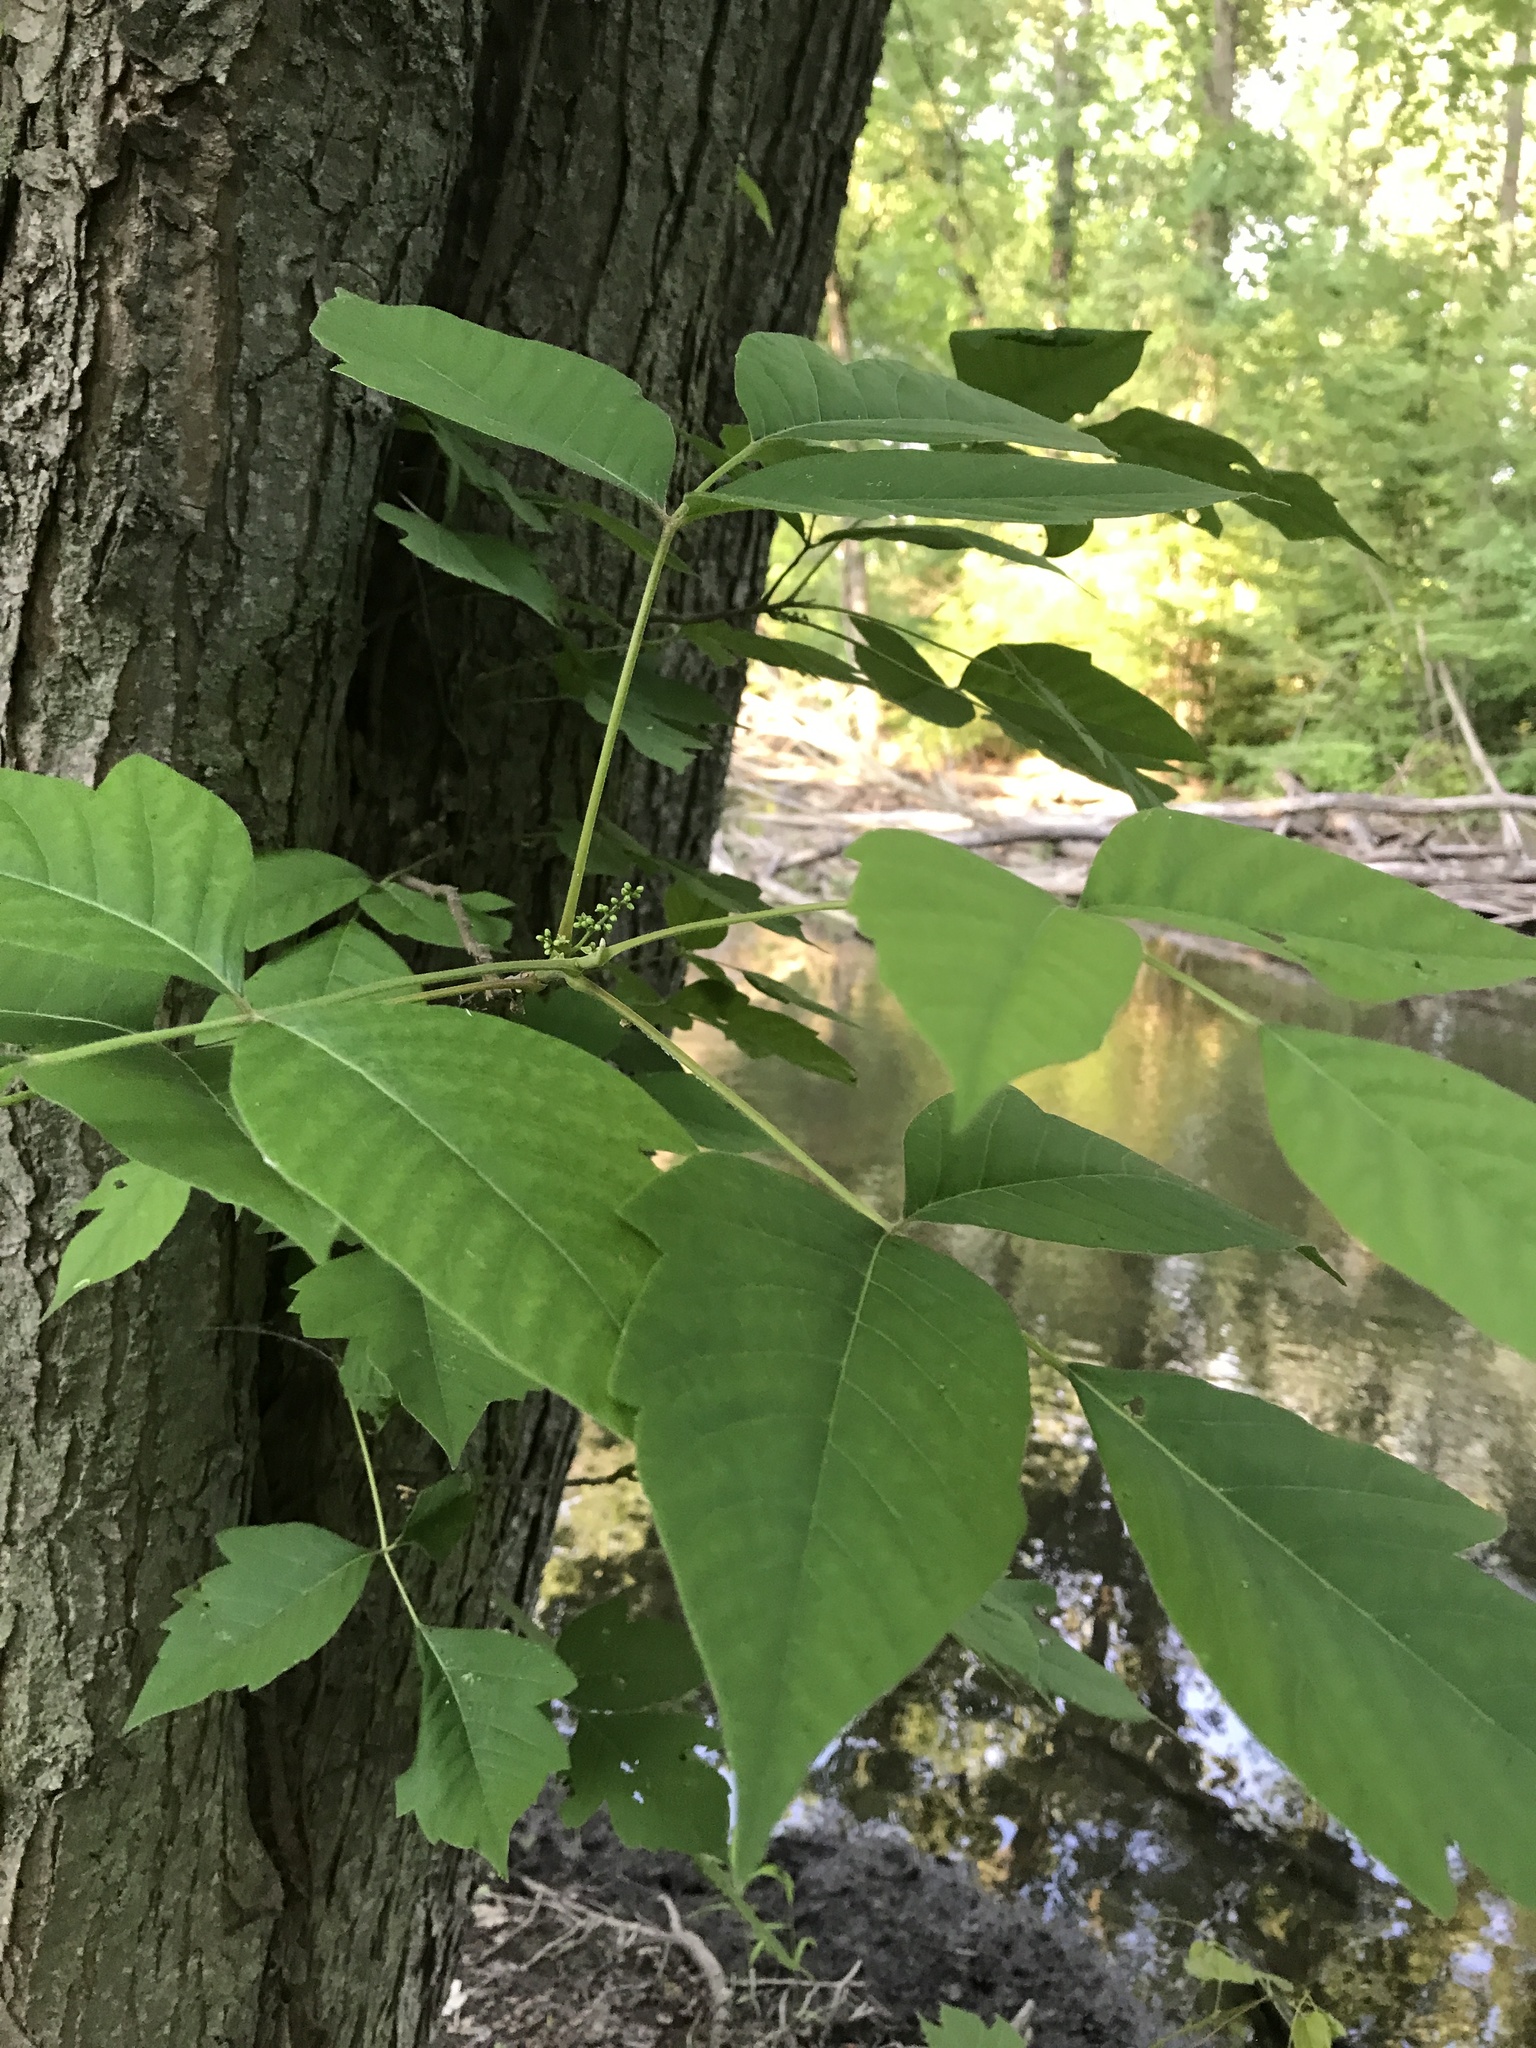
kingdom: Plantae
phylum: Tracheophyta
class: Magnoliopsida
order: Sapindales
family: Anacardiaceae
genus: Toxicodendron
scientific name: Toxicodendron radicans
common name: Poison ivy
